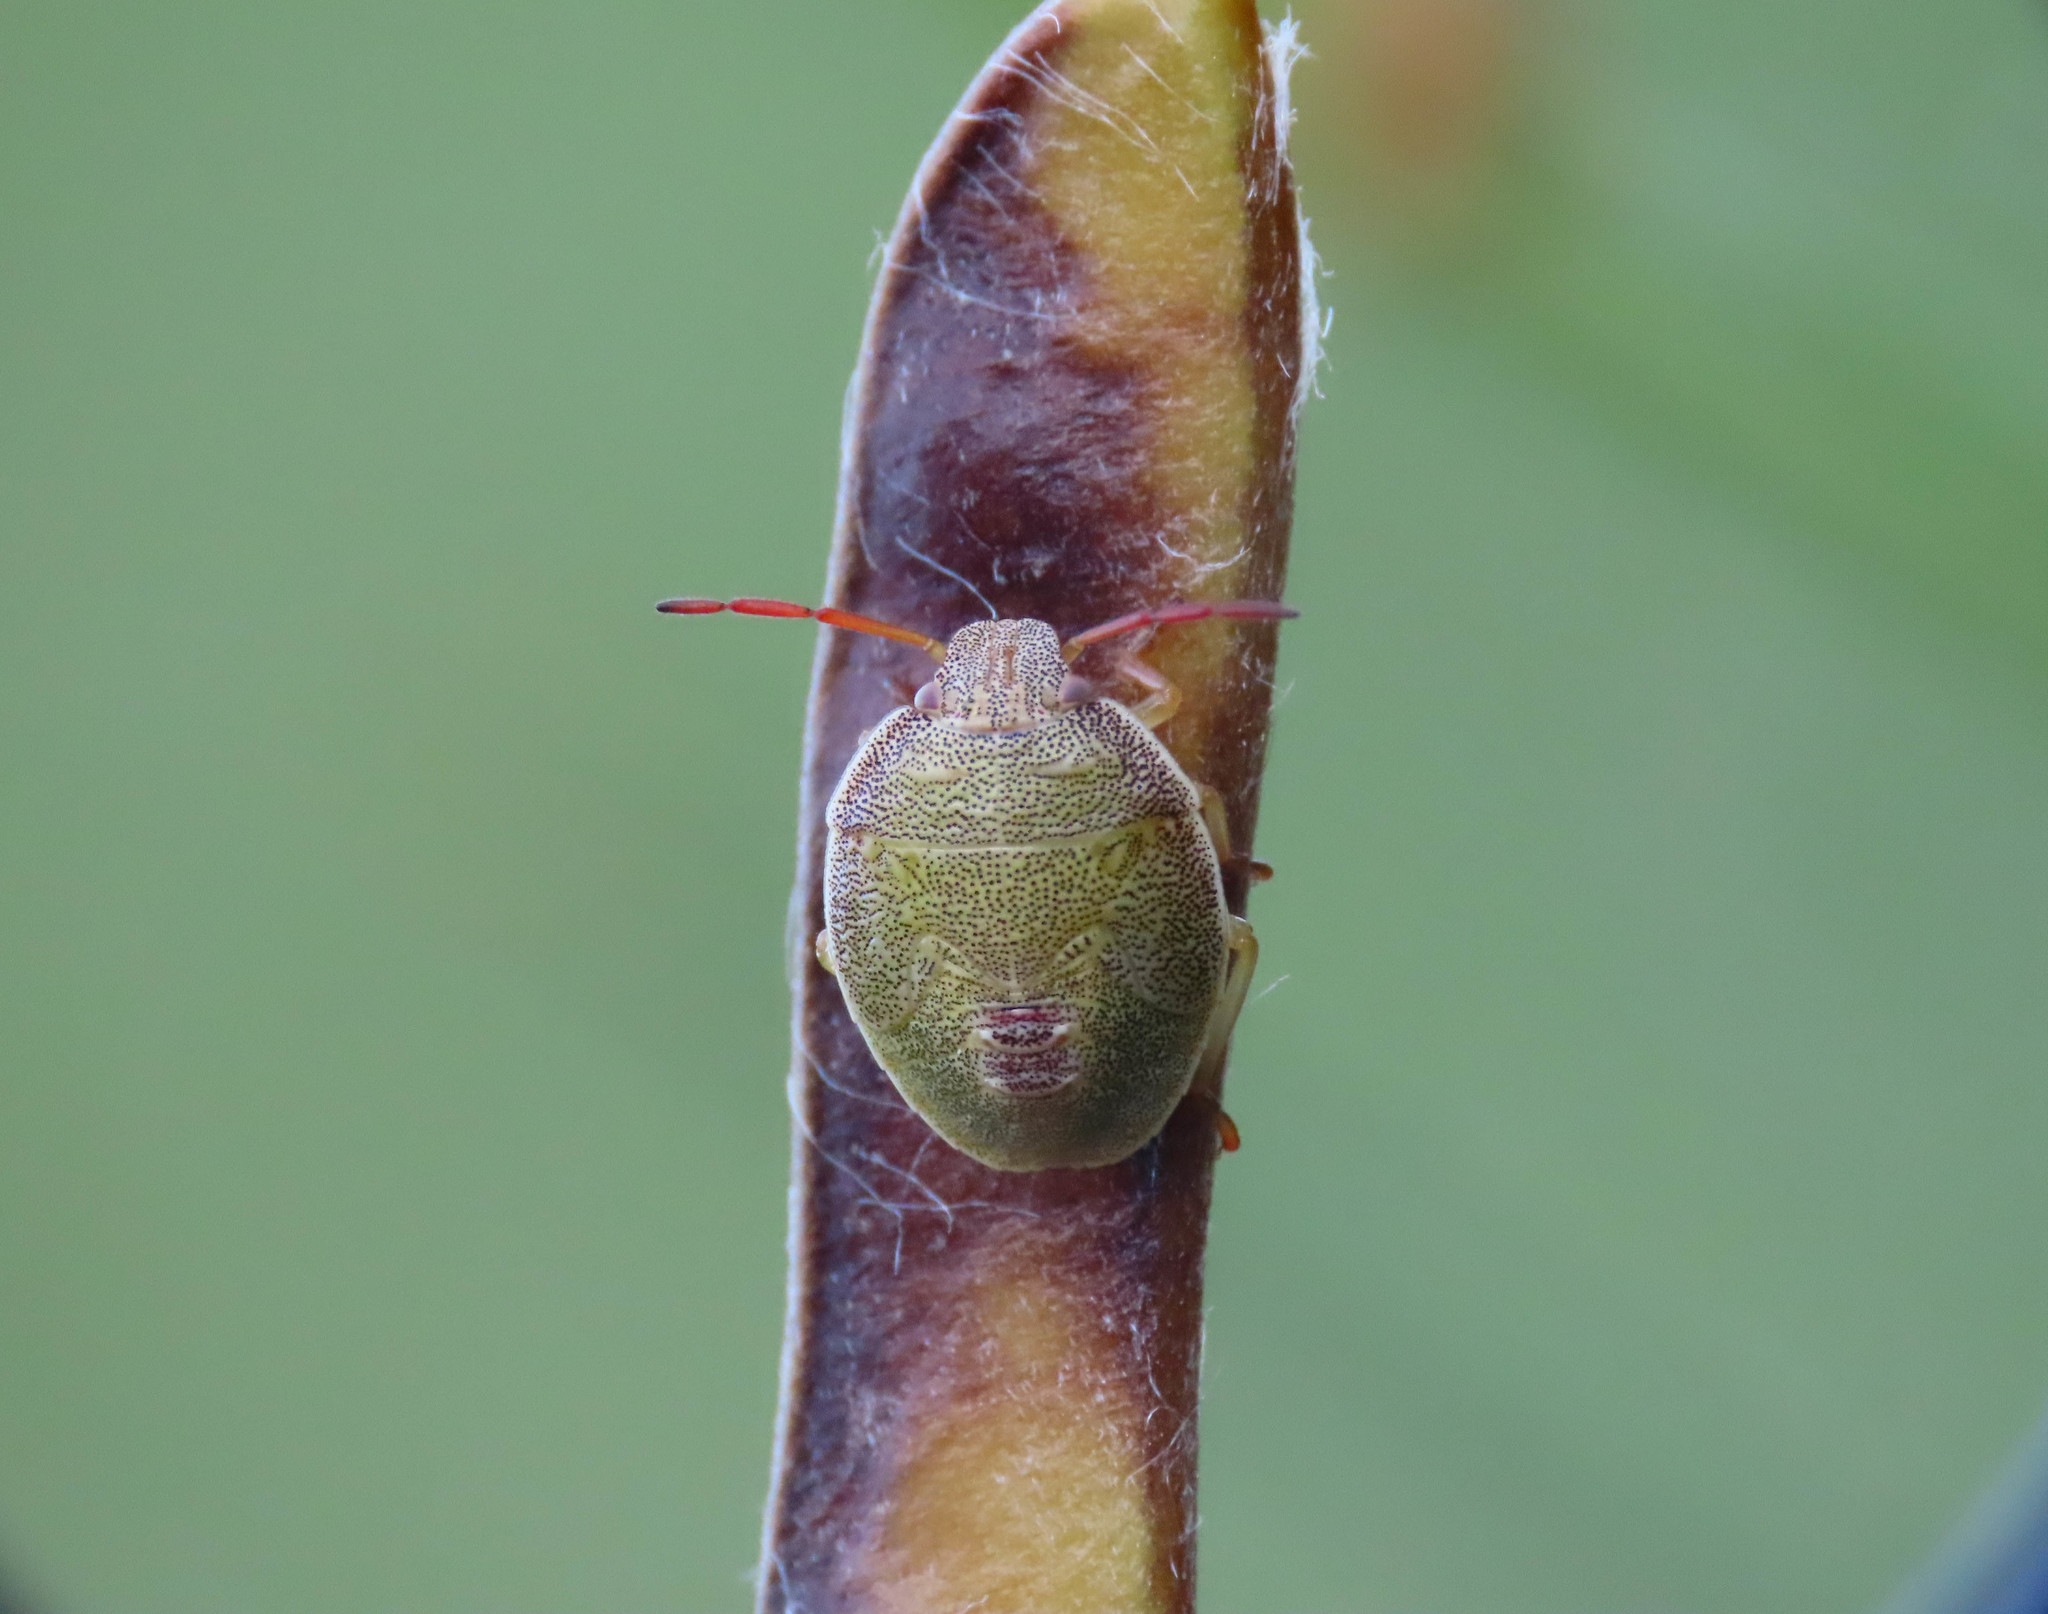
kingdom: Animalia
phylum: Arthropoda
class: Insecta
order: Hemiptera
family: Pentatomidae
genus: Piezodorus
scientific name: Piezodorus lituratus
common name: Stink bug
